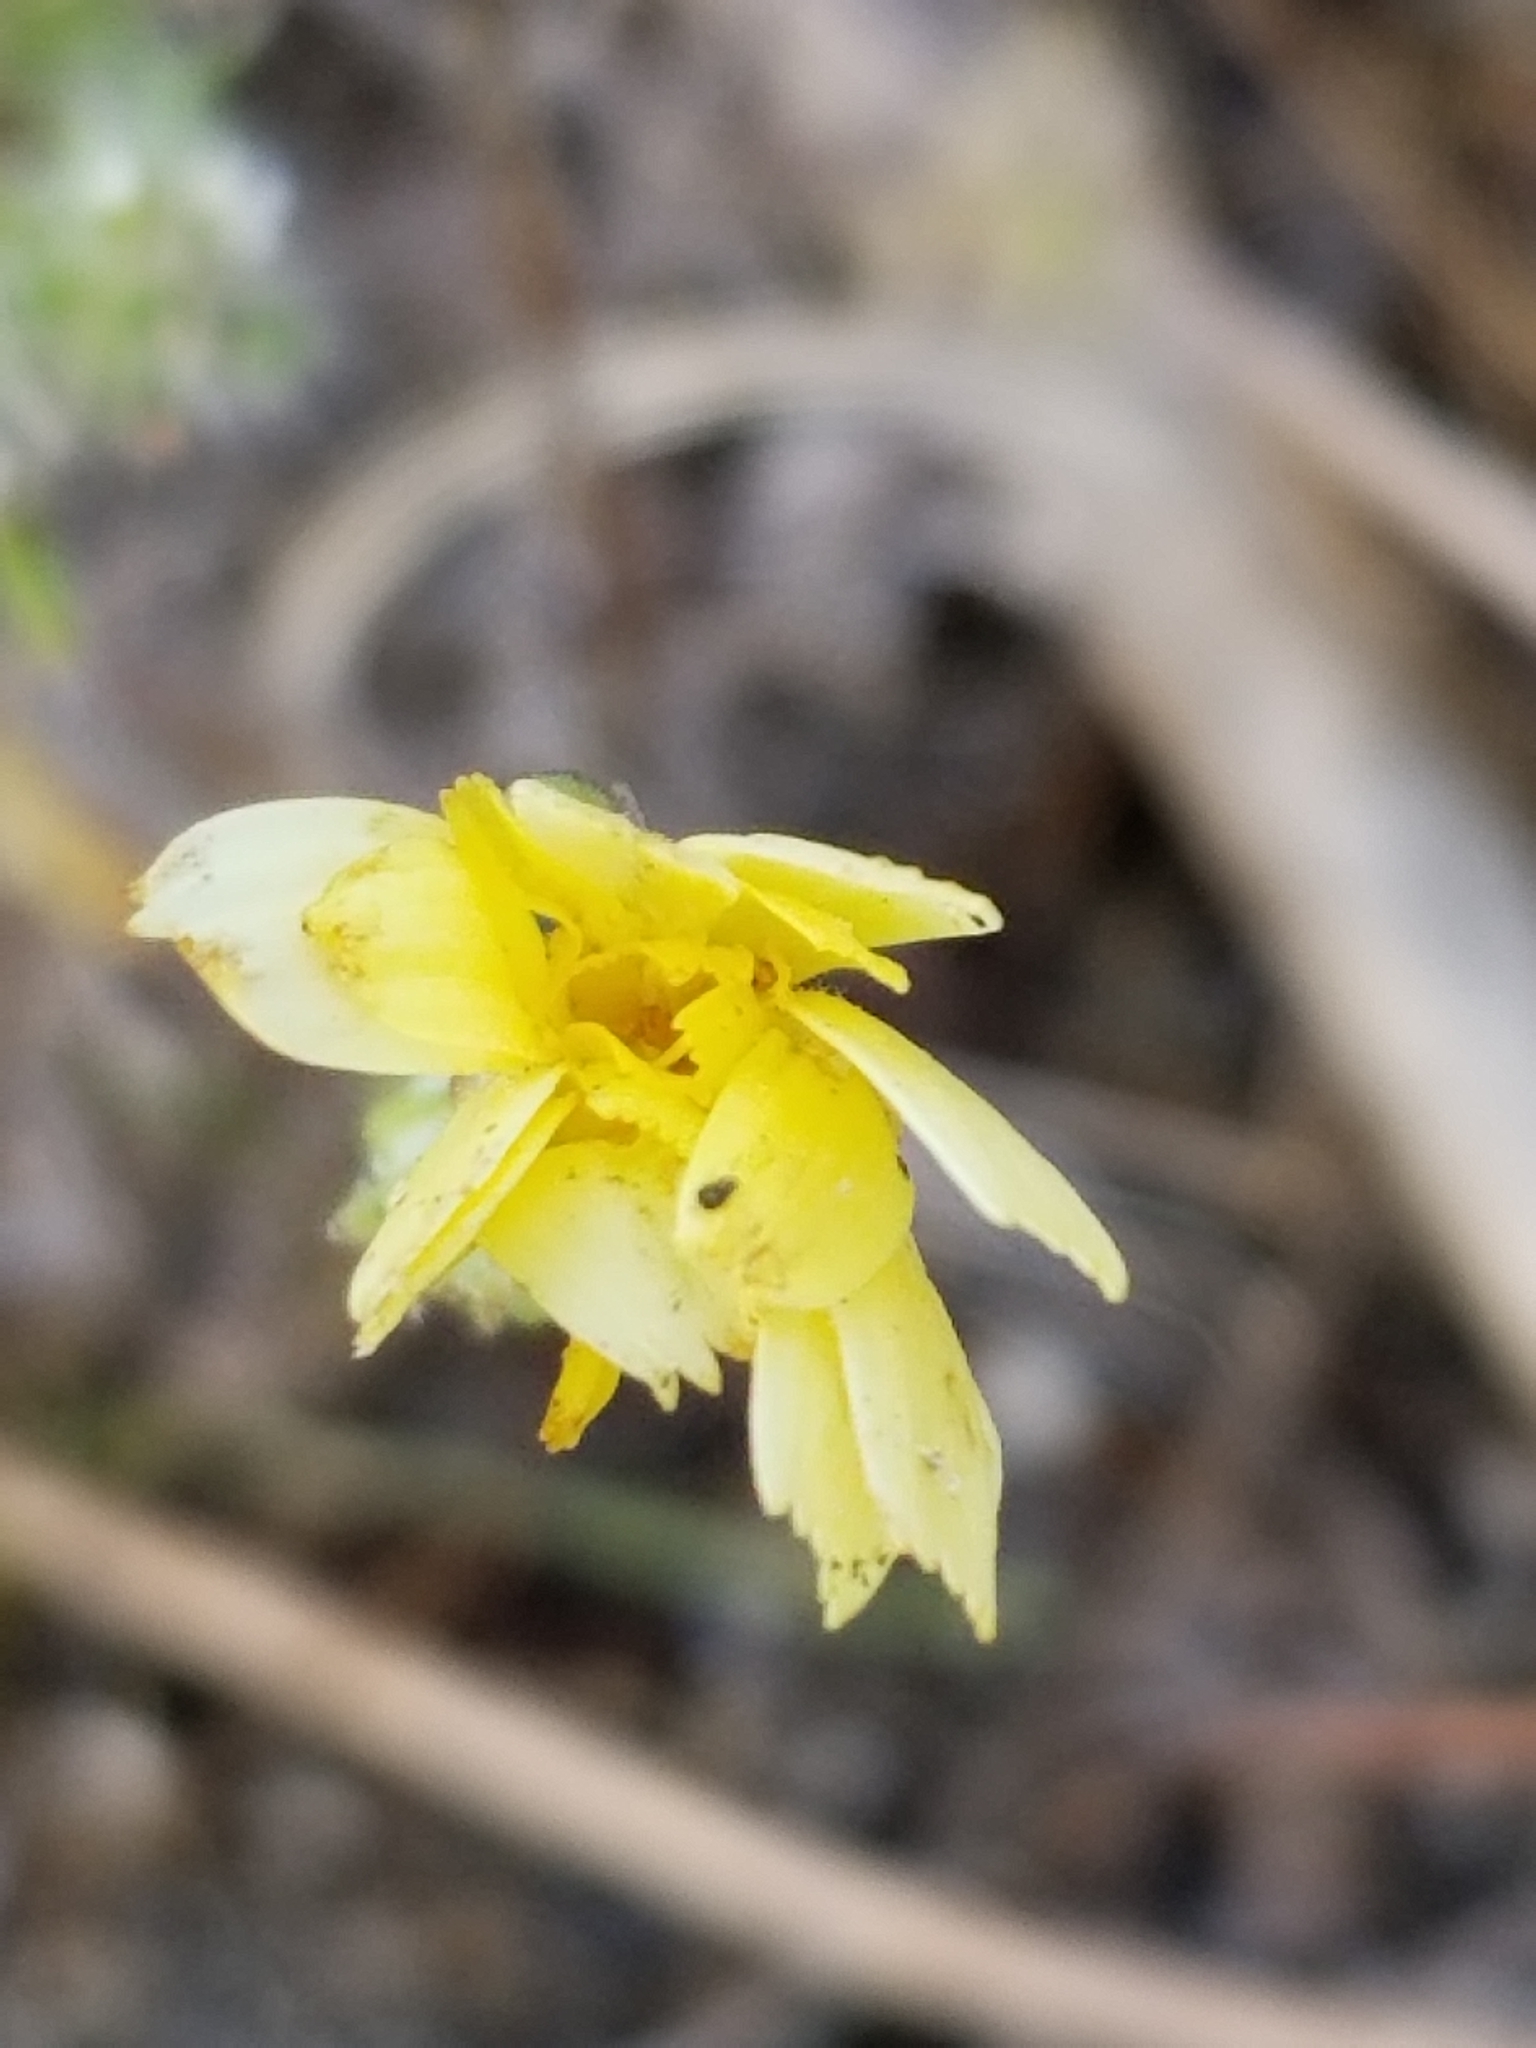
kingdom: Plantae
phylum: Tracheophyta
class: Magnoliopsida
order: Asterales
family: Asteraceae
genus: Malacothrix
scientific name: Malacothrix glabrata
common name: Smooth desert-dandelion
